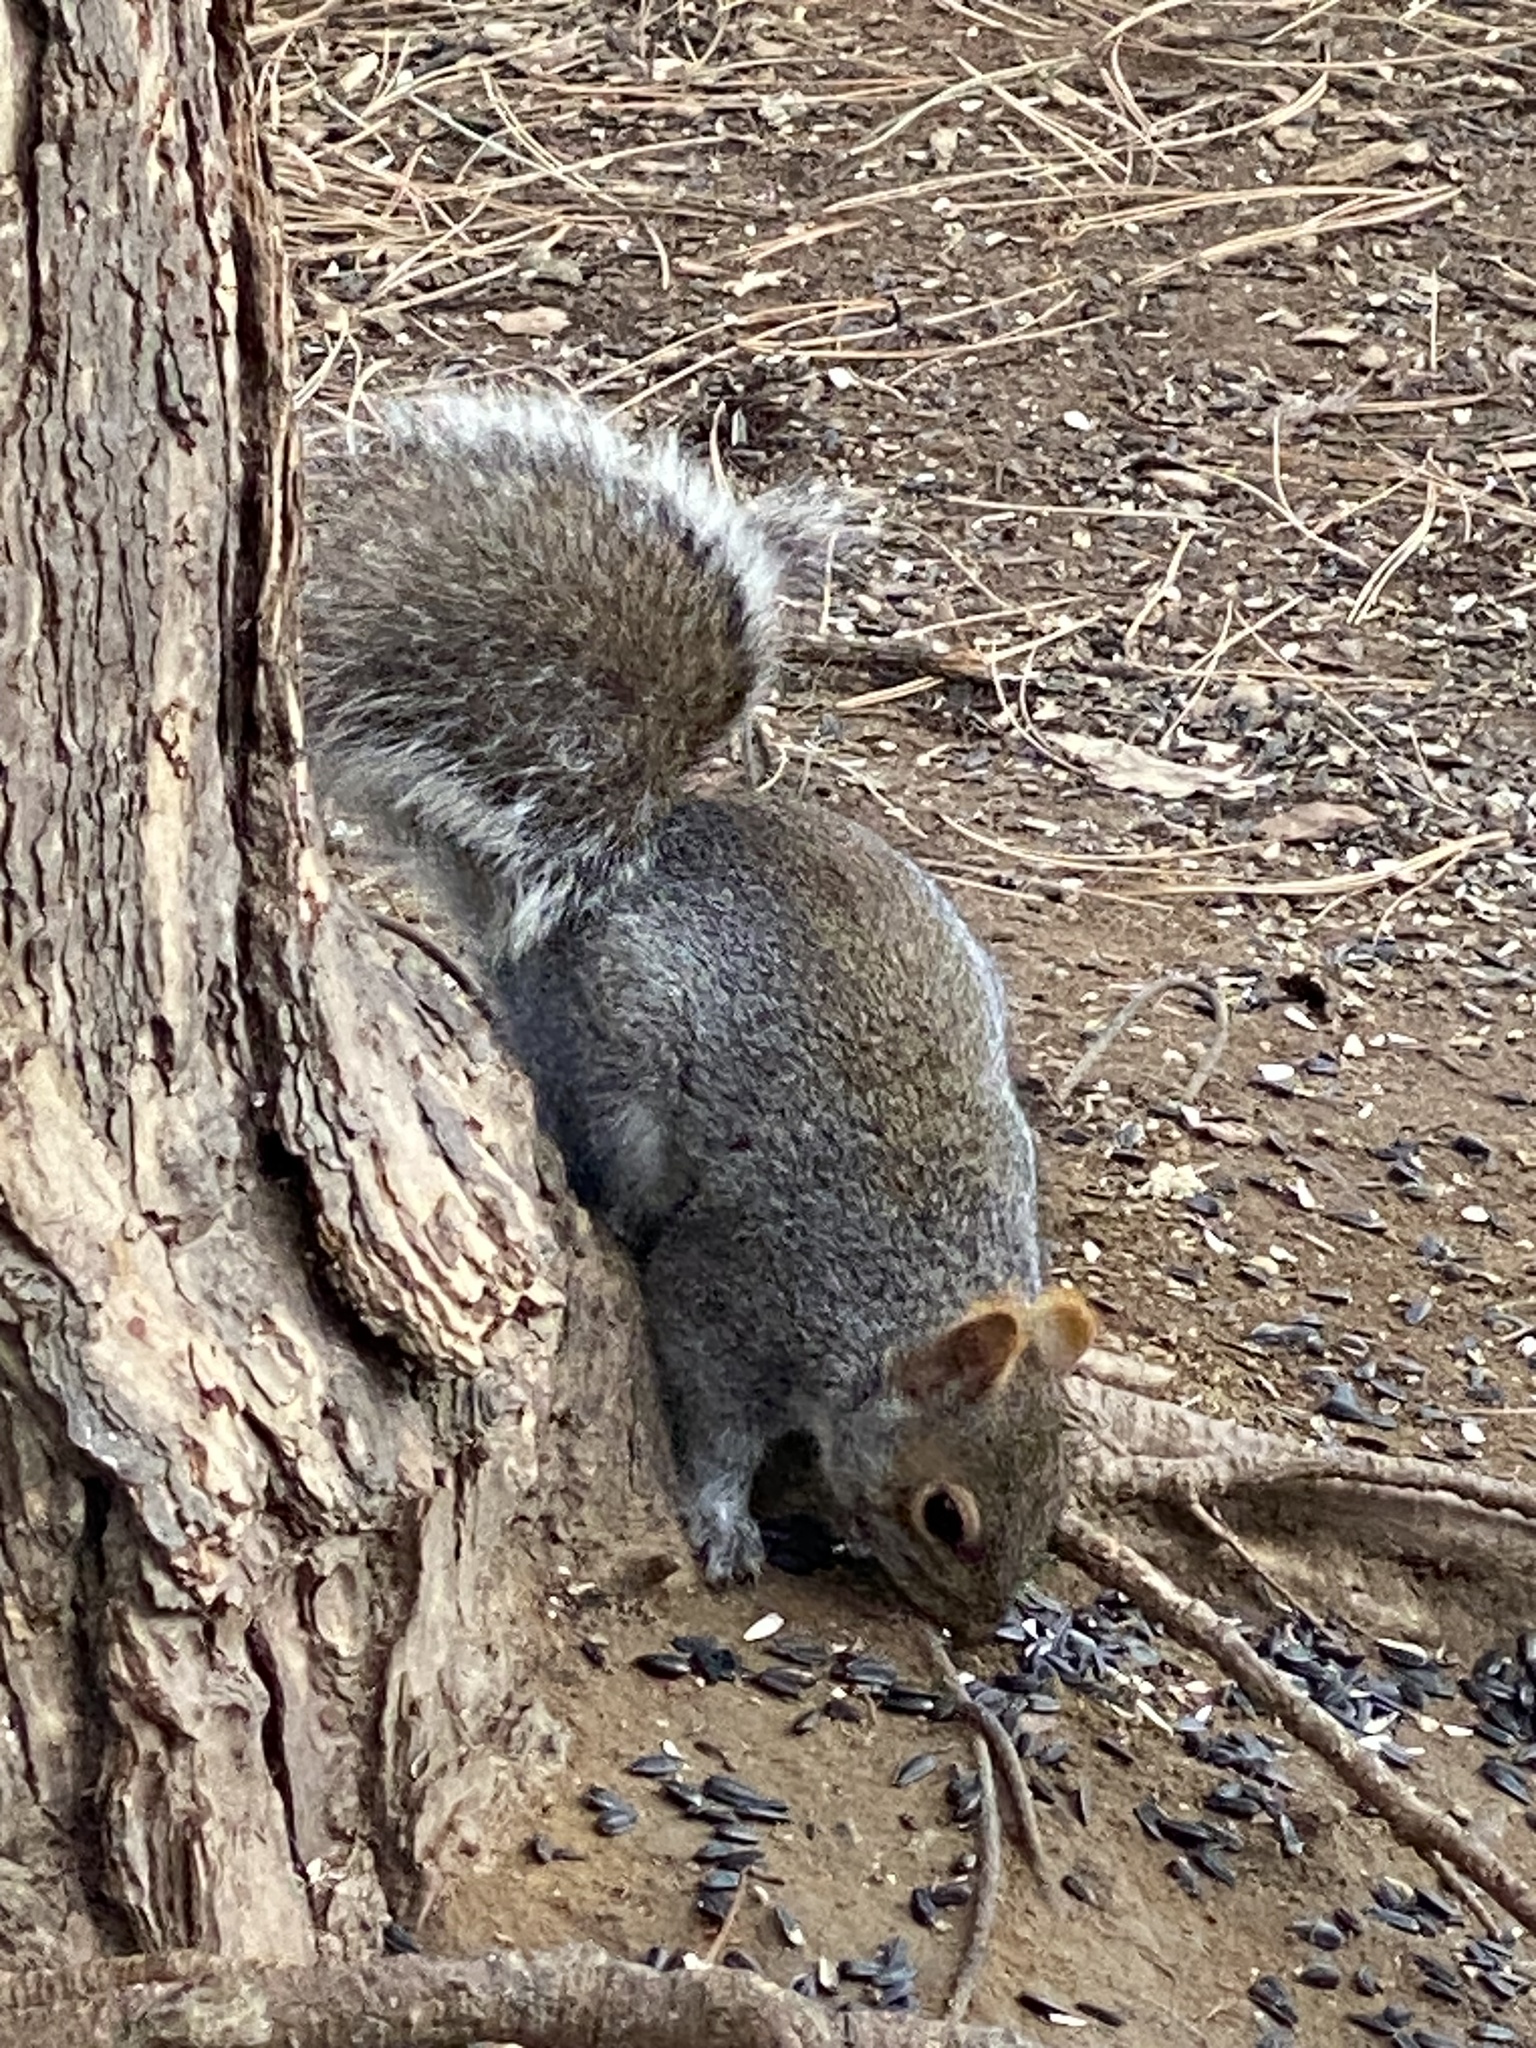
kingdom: Animalia
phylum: Chordata
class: Mammalia
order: Rodentia
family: Sciuridae
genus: Sciurus
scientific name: Sciurus carolinensis
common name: Eastern gray squirrel
